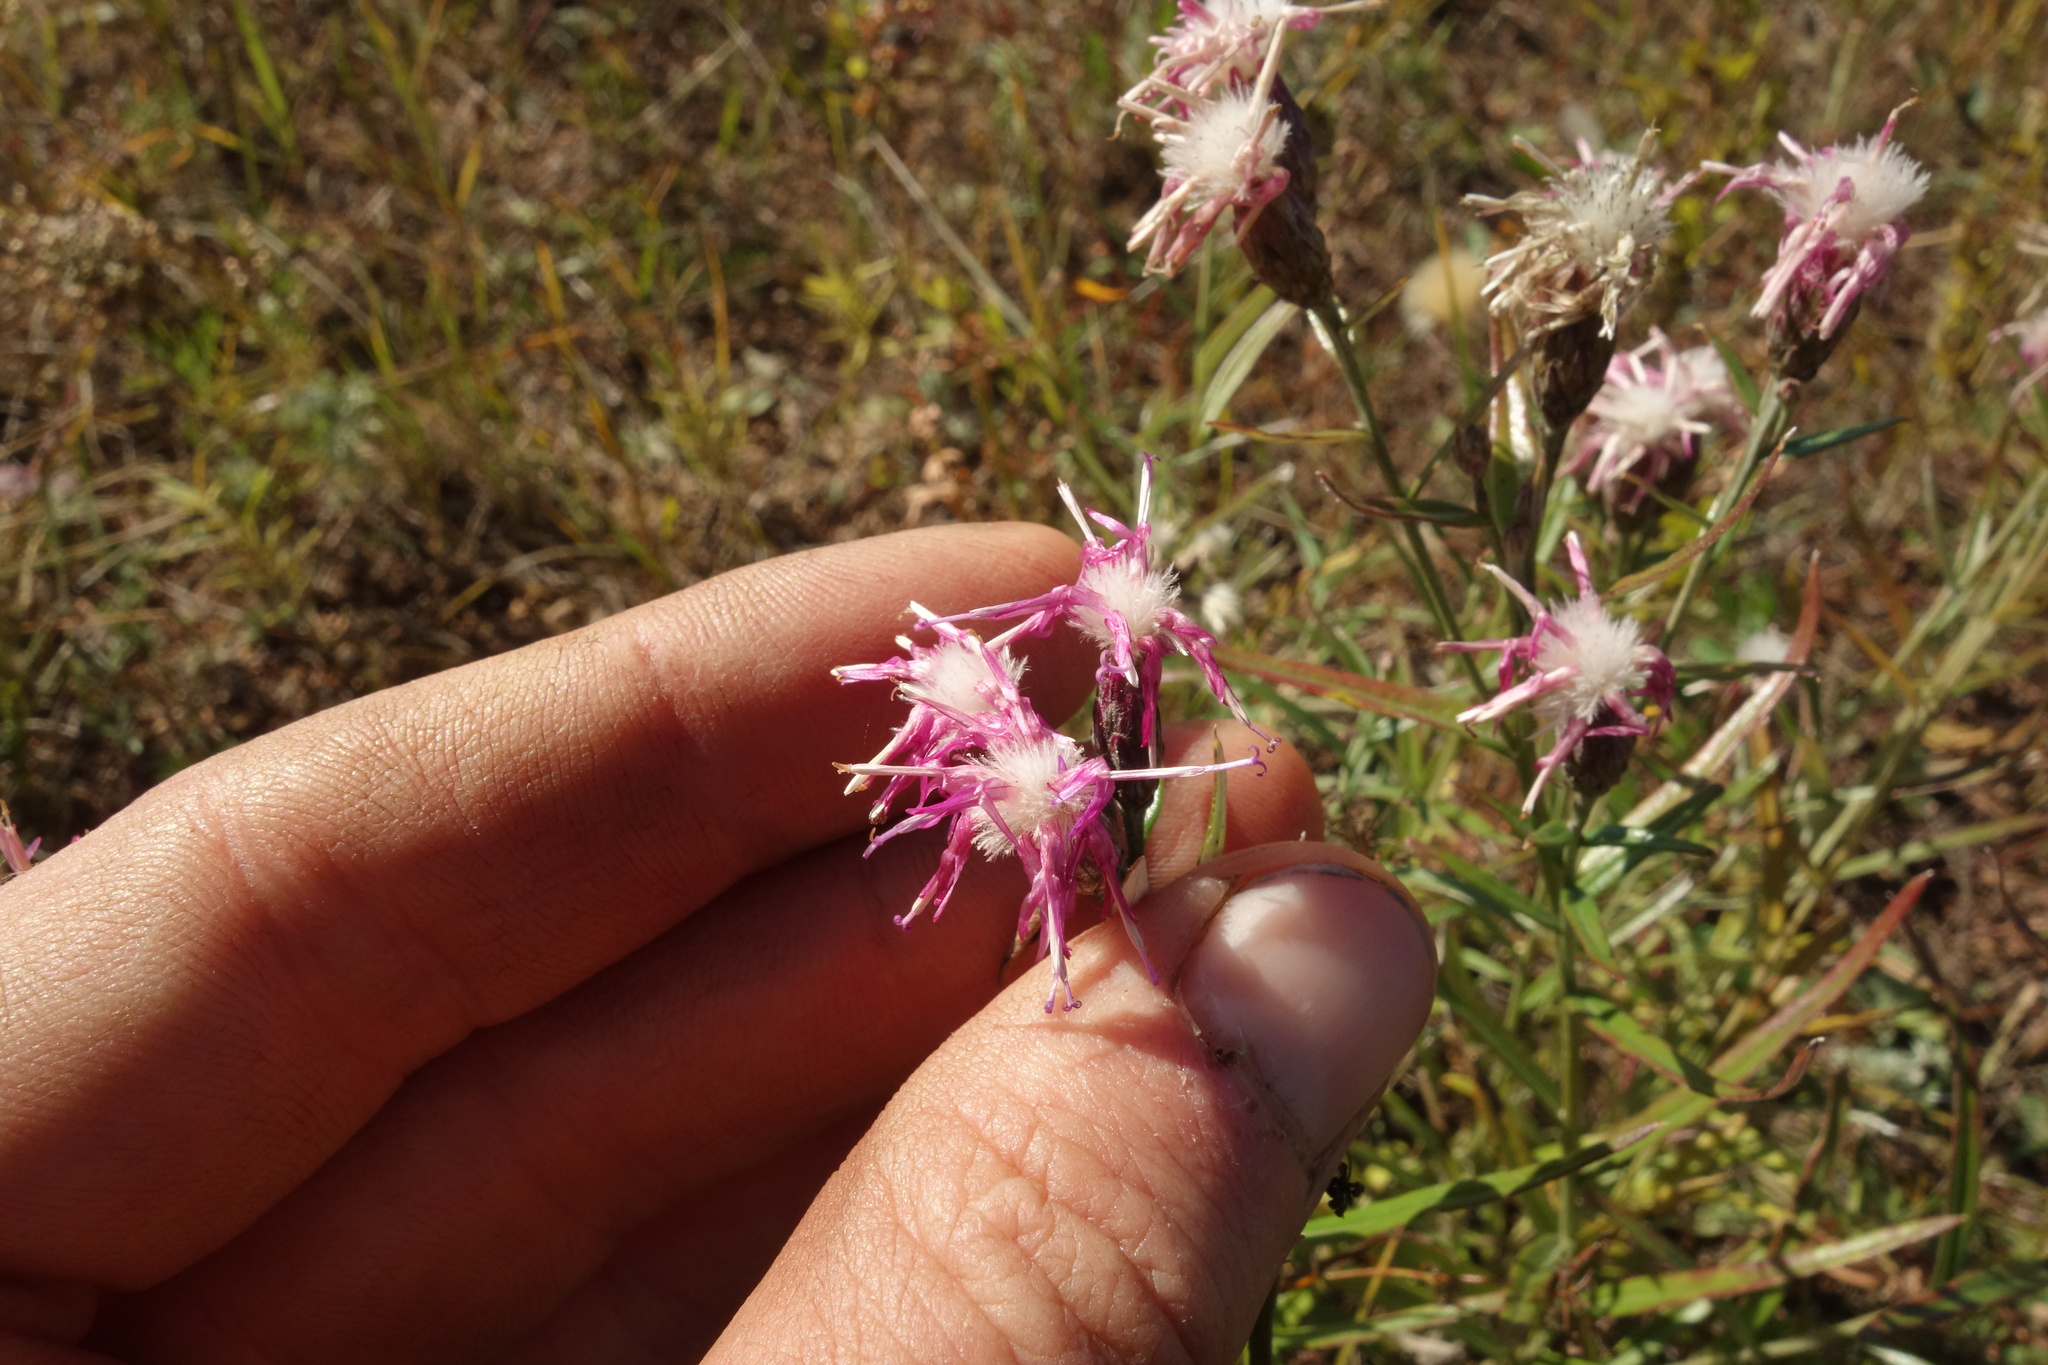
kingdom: Plantae
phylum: Tracheophyta
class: Magnoliopsida
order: Asterales
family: Asteraceae
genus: Saussurea
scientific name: Saussurea salicifolia
